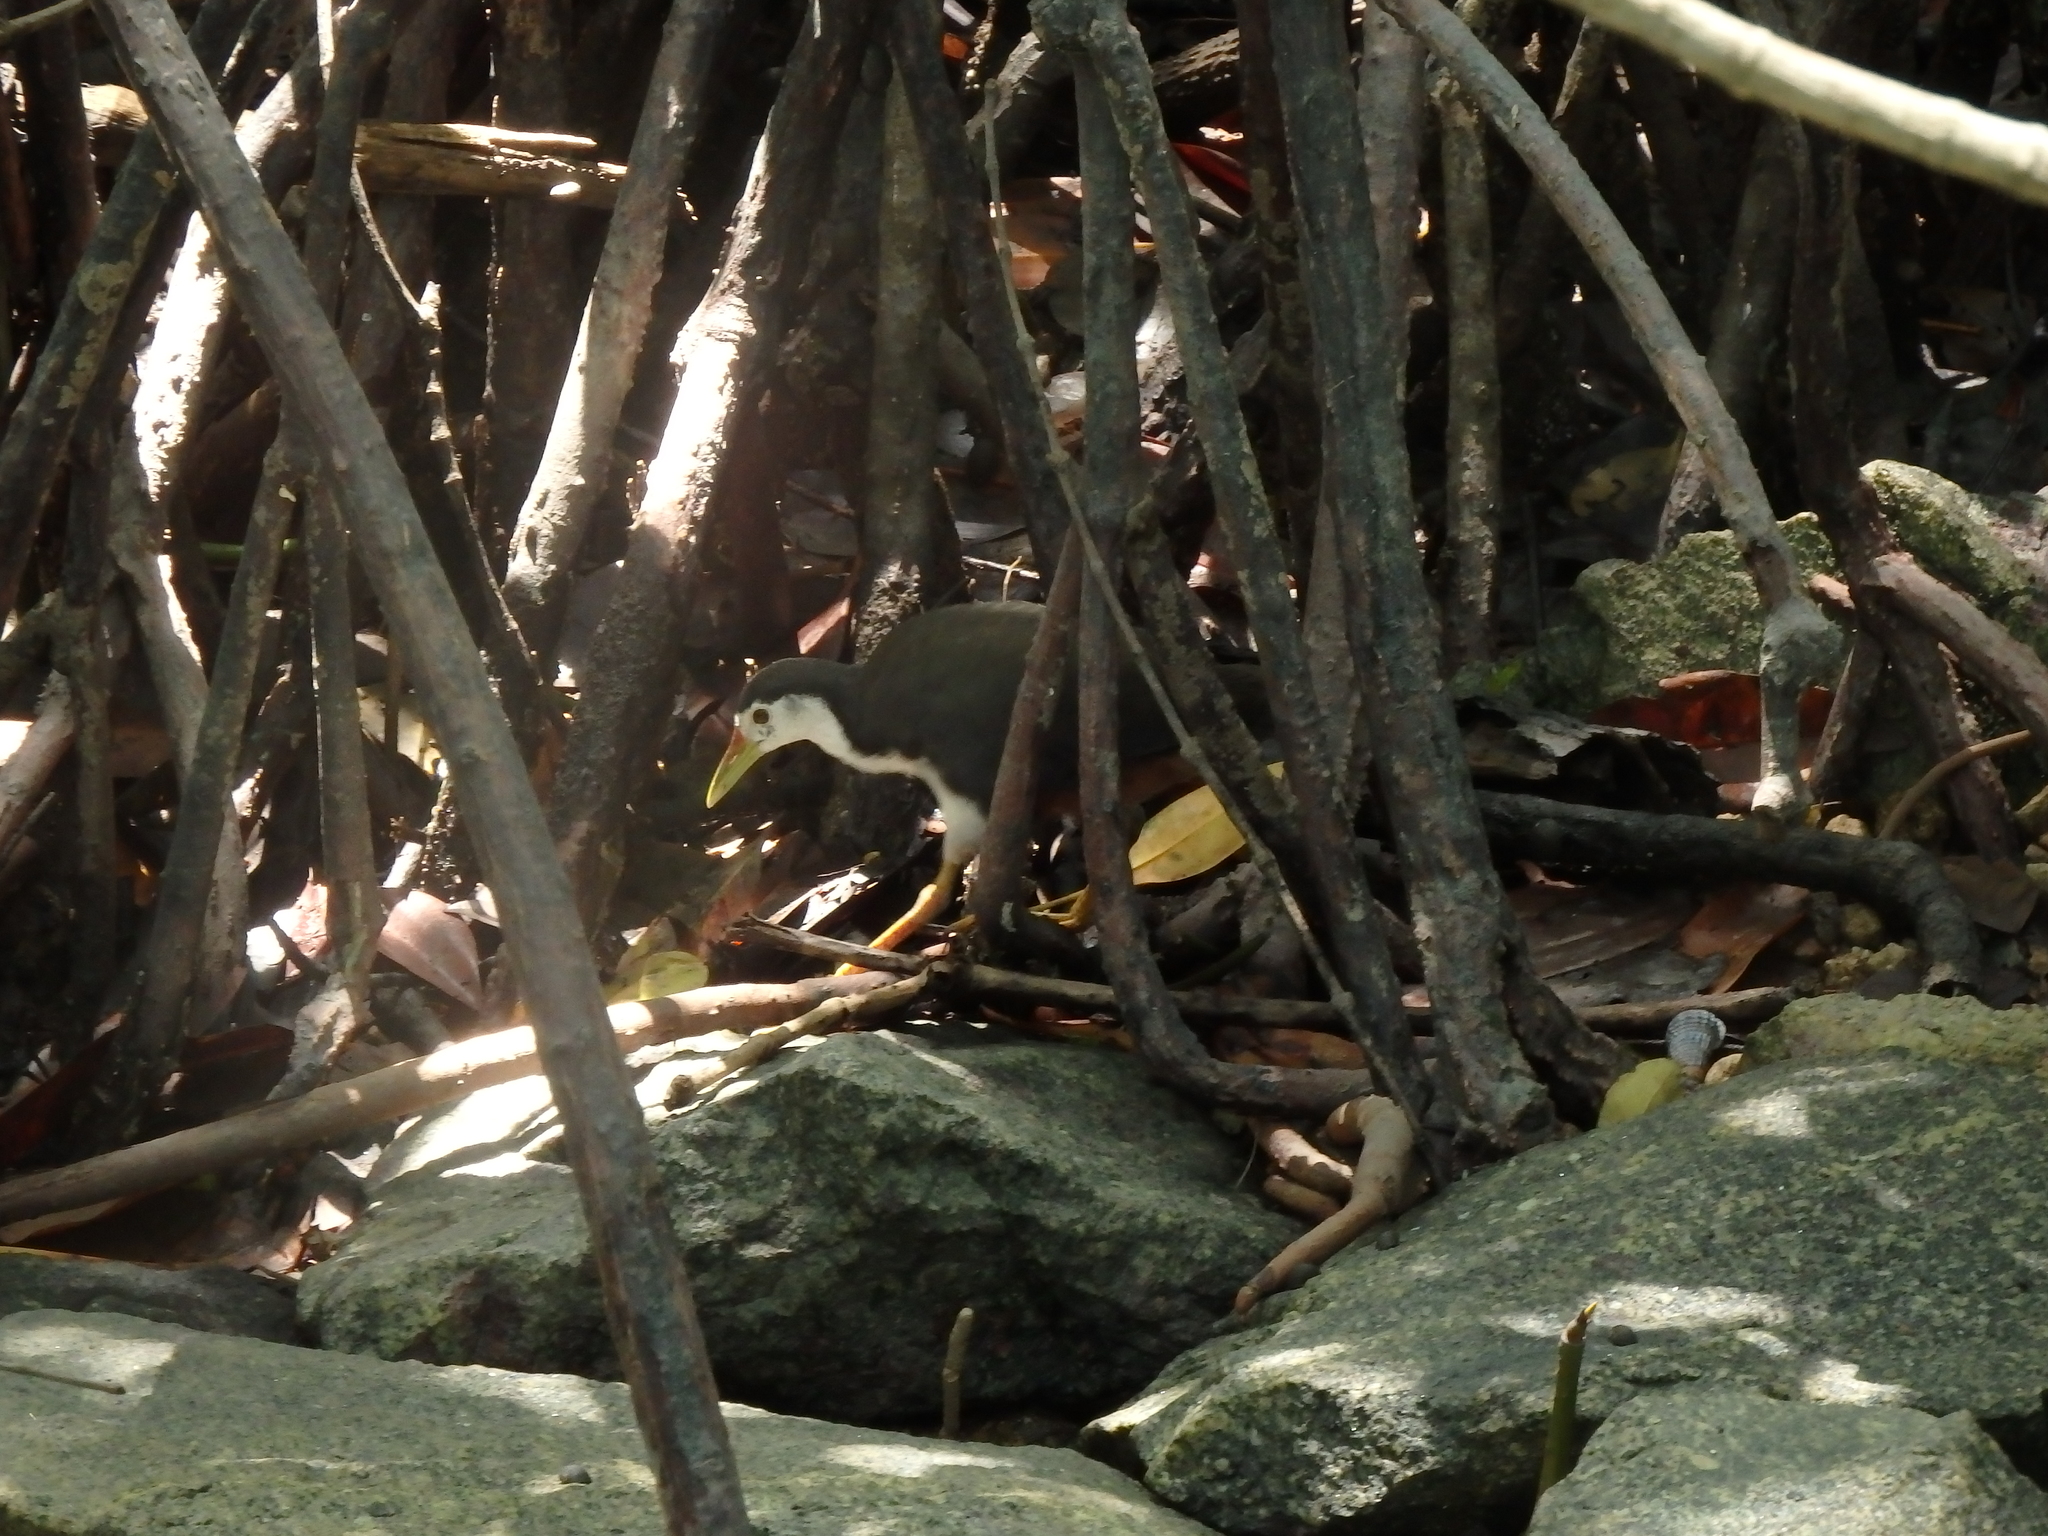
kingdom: Animalia
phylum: Chordata
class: Aves
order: Gruiformes
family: Rallidae
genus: Amaurornis
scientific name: Amaurornis phoenicurus
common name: White-breasted waterhen
